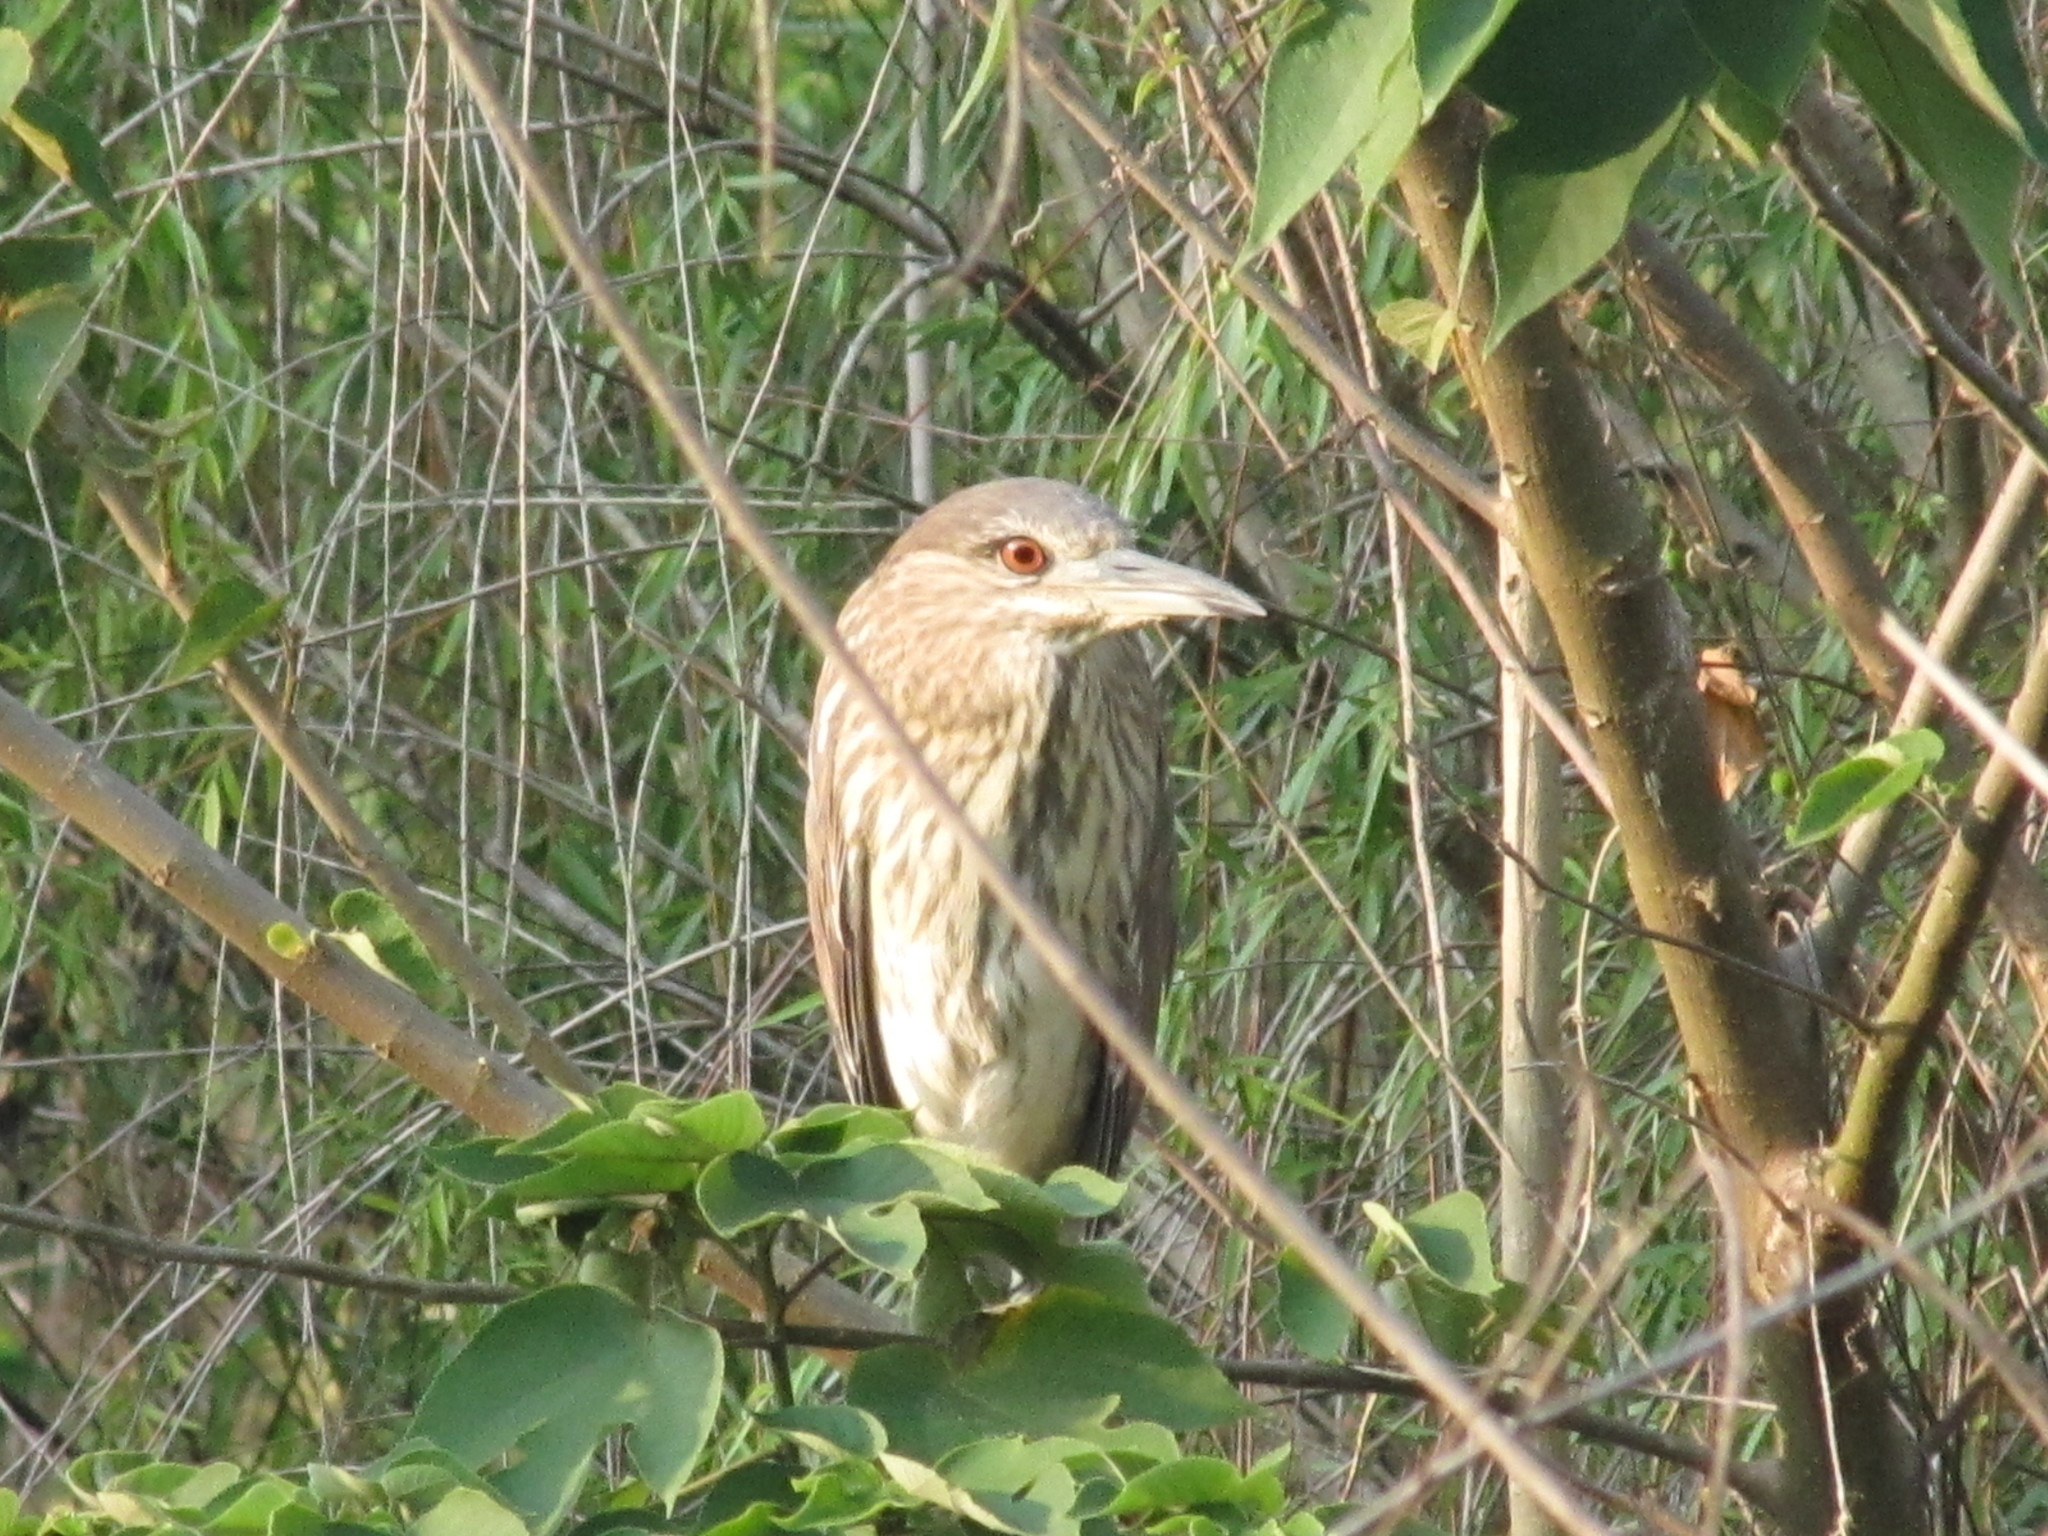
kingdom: Animalia
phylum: Chordata
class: Aves
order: Pelecaniformes
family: Ardeidae
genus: Nycticorax
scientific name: Nycticorax nycticorax
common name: Black-crowned night heron
